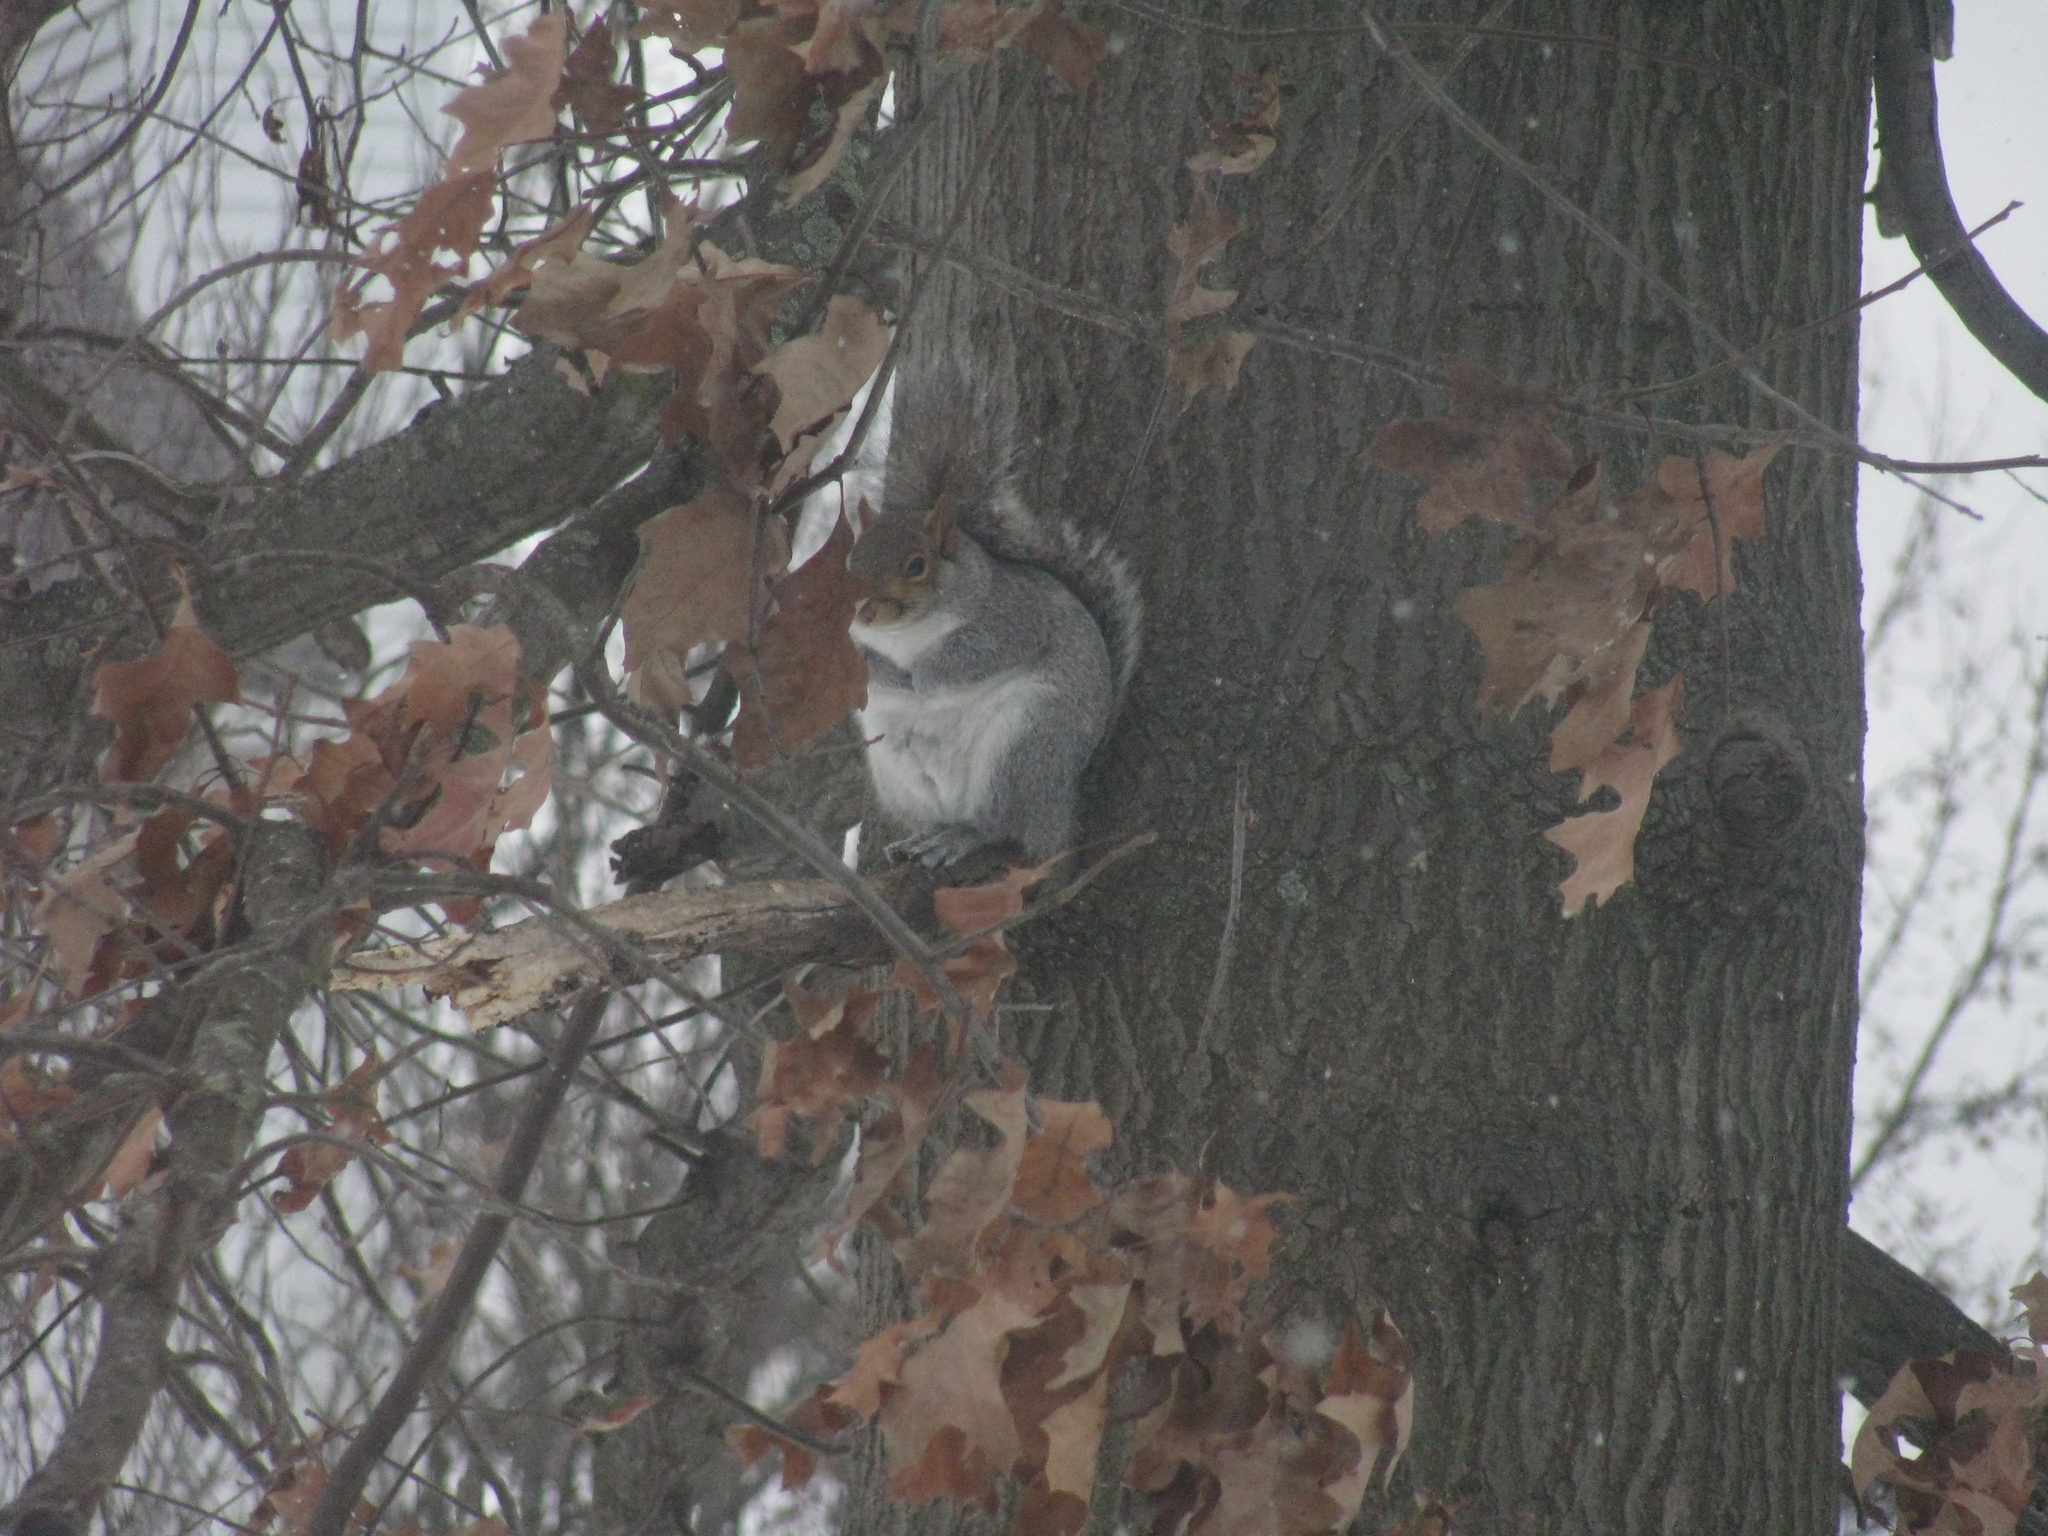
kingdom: Animalia
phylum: Chordata
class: Mammalia
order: Rodentia
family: Sciuridae
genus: Sciurus
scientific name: Sciurus carolinensis
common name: Eastern gray squirrel
